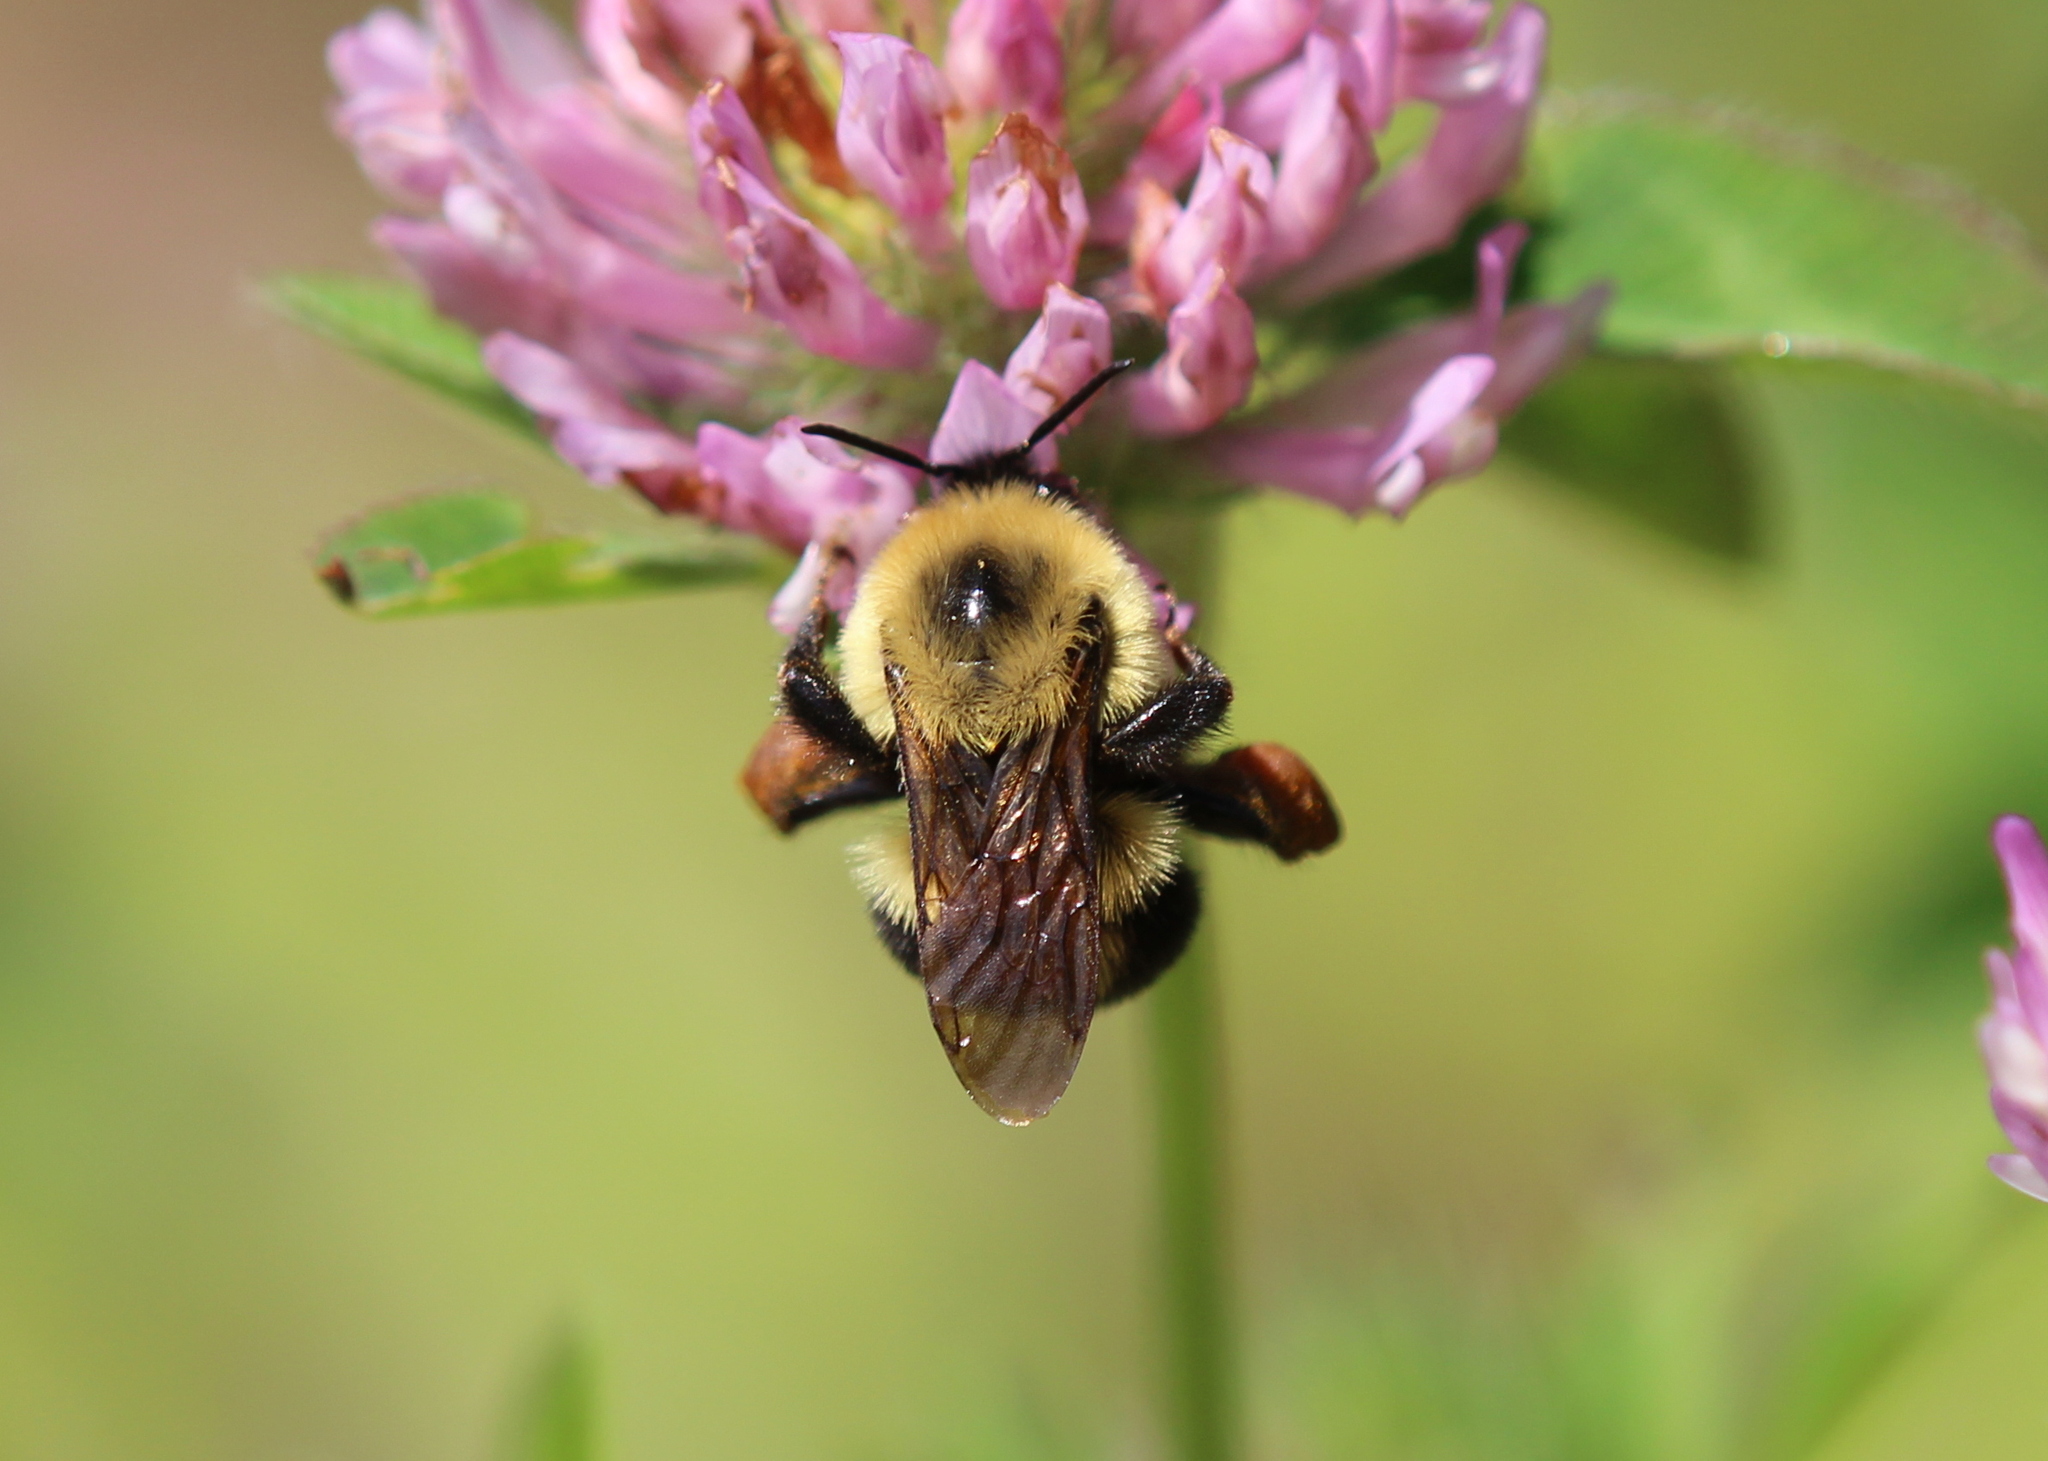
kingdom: Animalia
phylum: Arthropoda
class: Insecta
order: Hymenoptera
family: Apidae
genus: Bombus
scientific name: Bombus bimaculatus
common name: Two-spotted bumble bee
